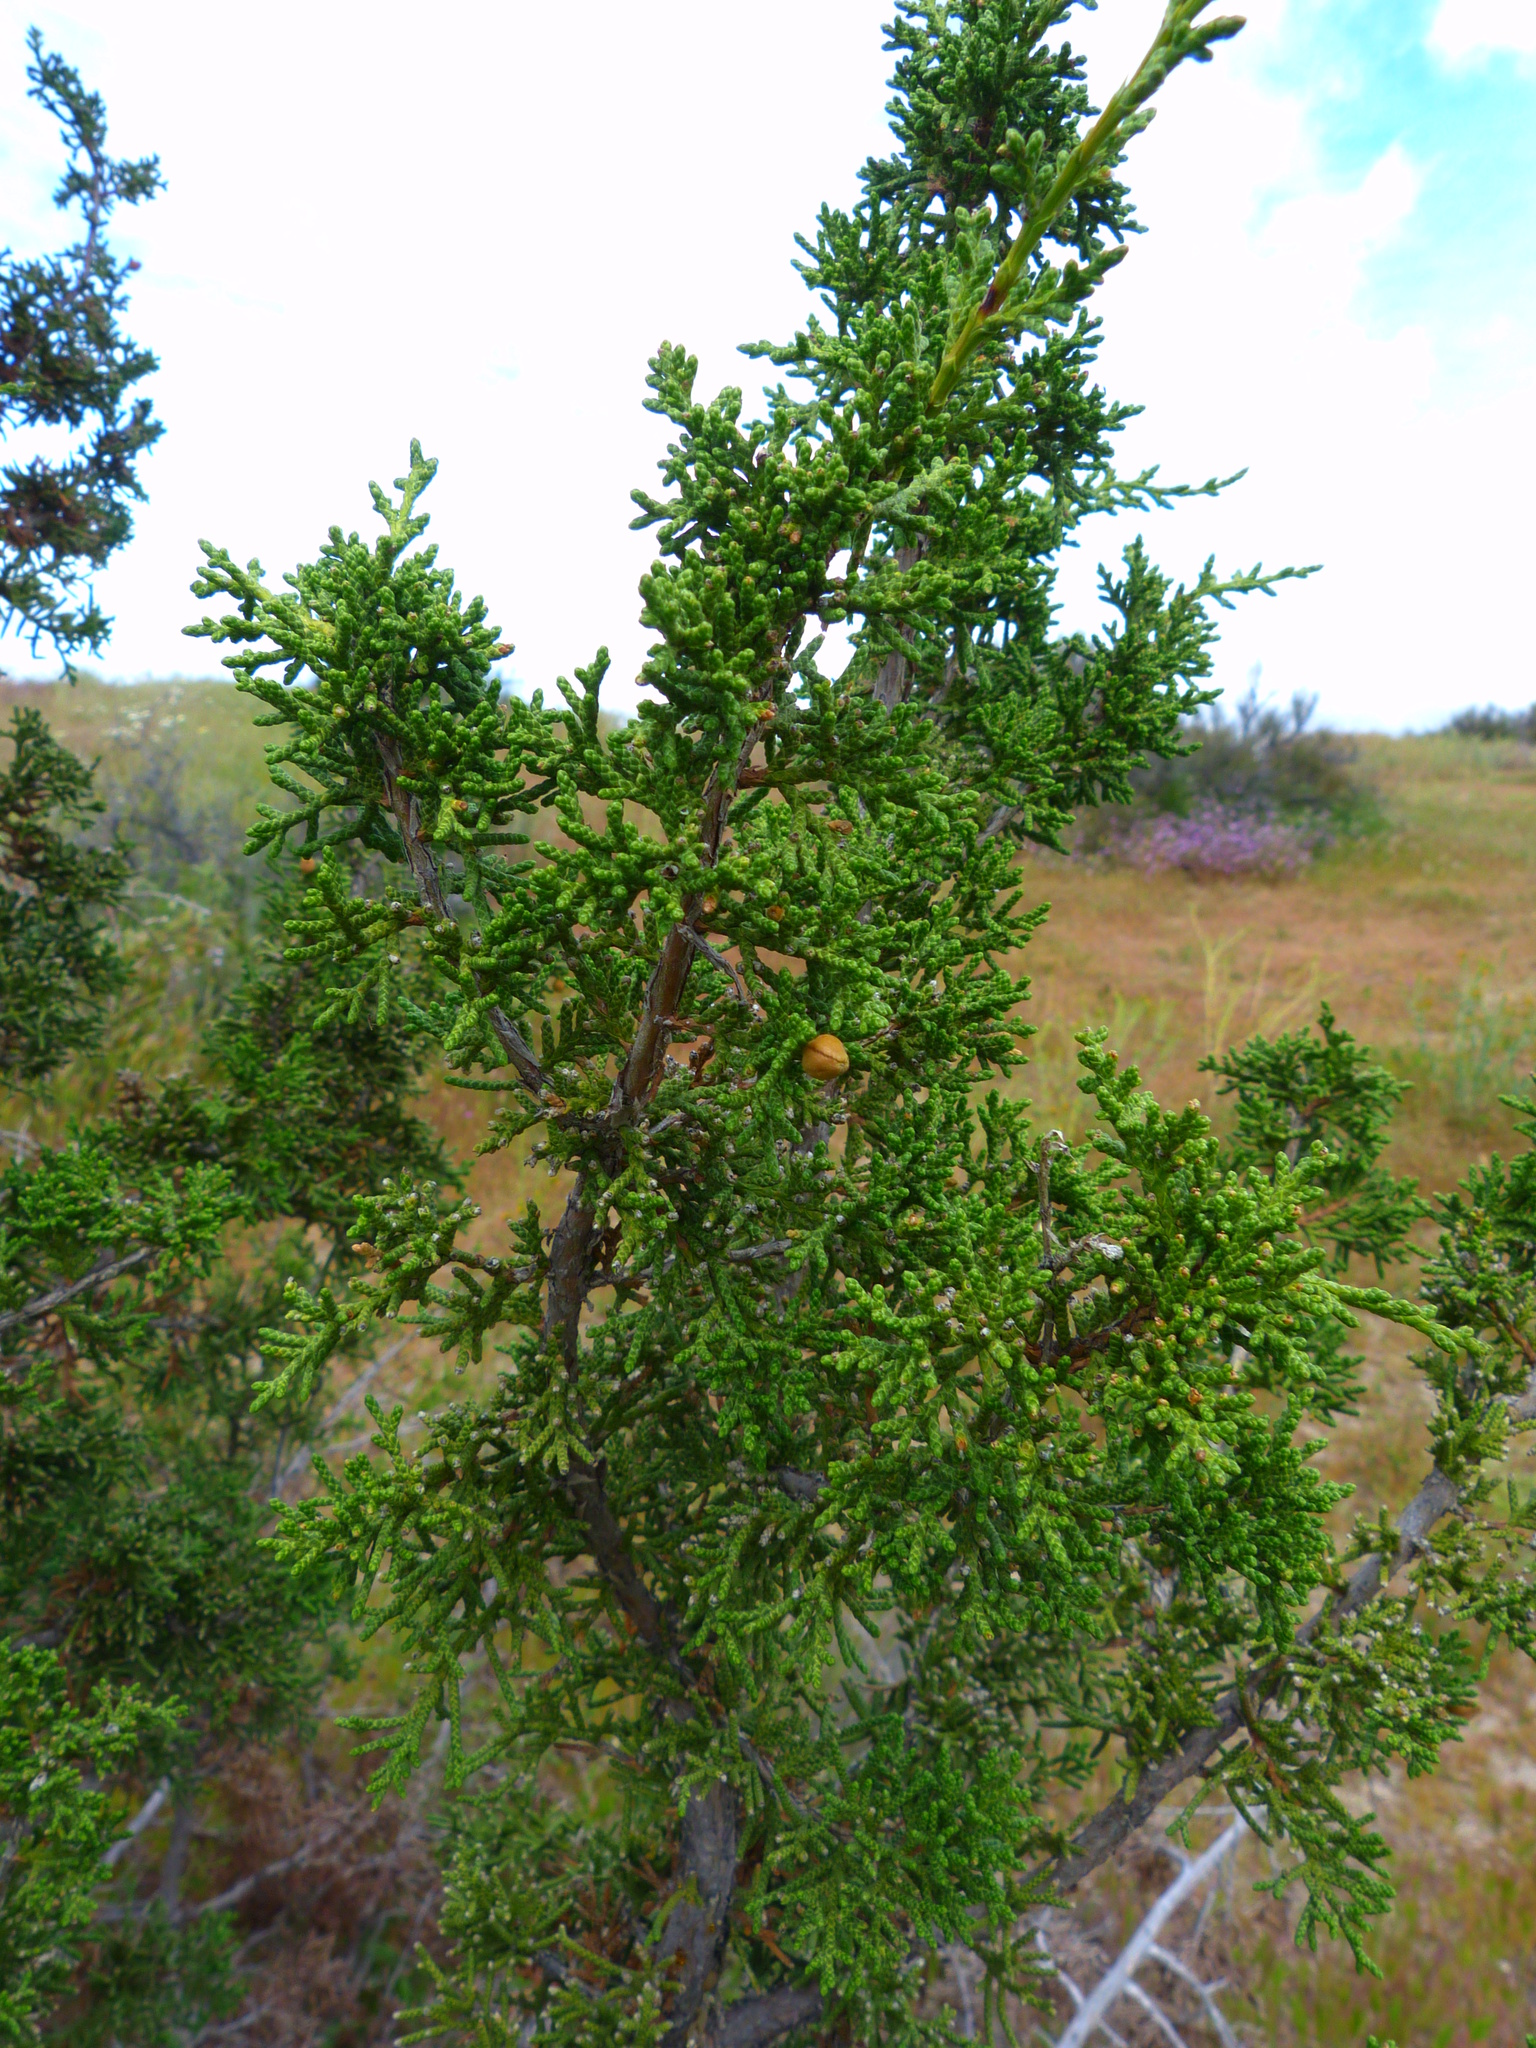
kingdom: Plantae
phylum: Tracheophyta
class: Pinopsida
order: Pinales
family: Cupressaceae
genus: Juniperus
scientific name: Juniperus californica
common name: California juniper
